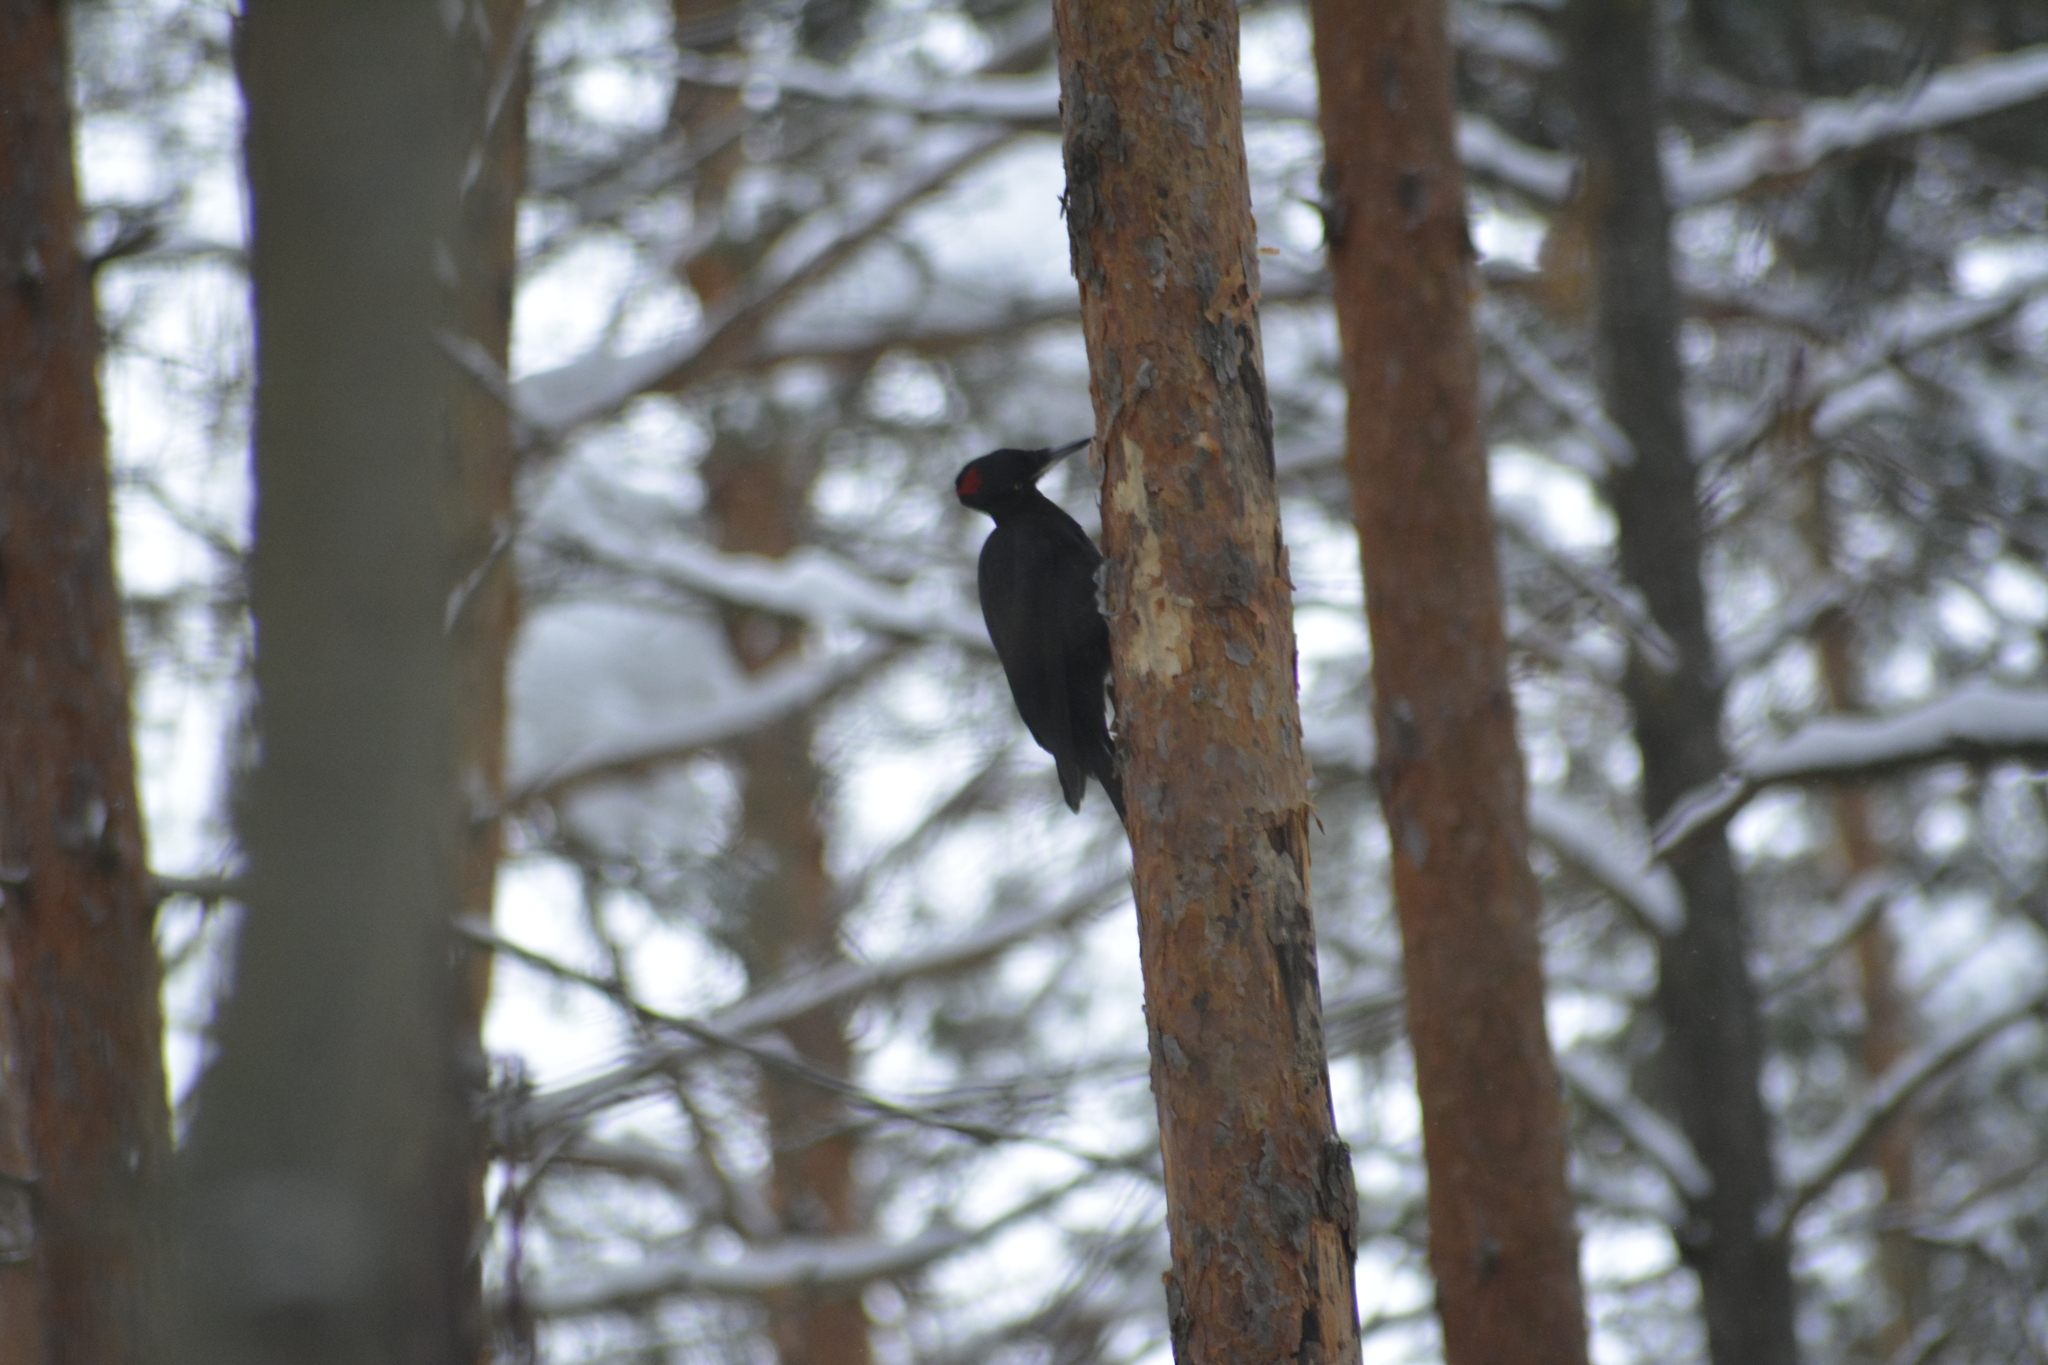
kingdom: Animalia
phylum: Chordata
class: Aves
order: Piciformes
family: Picidae
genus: Dryocopus
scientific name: Dryocopus martius
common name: Black woodpecker
